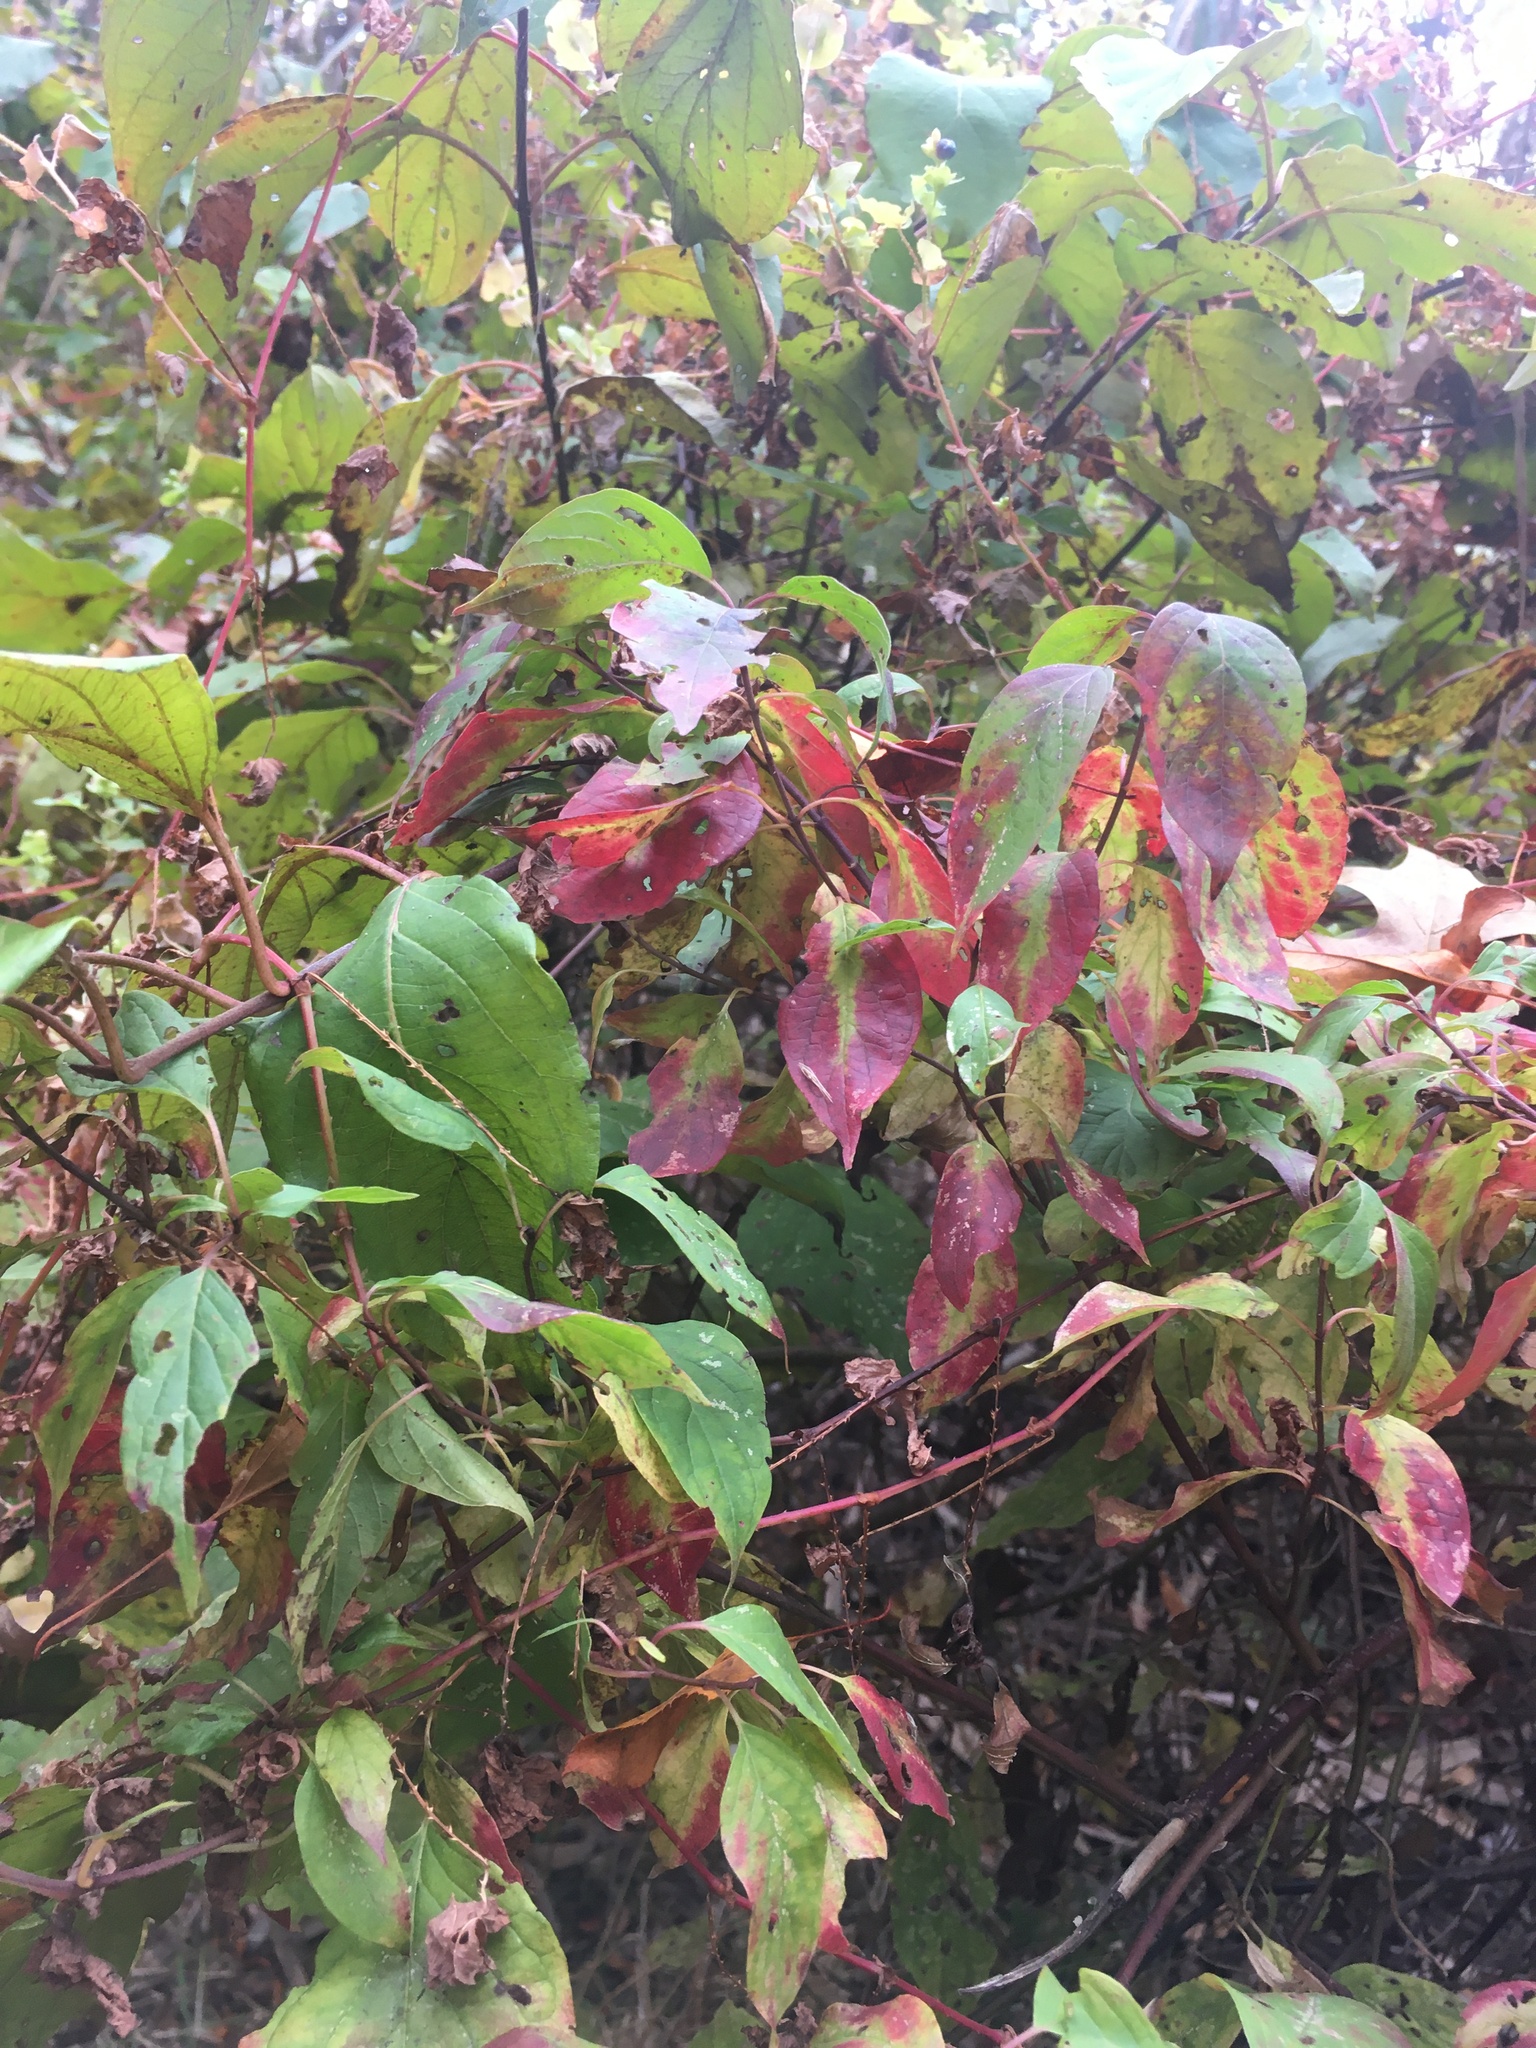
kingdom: Plantae
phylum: Tracheophyta
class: Magnoliopsida
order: Caryophyllales
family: Polygonaceae
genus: Persicaria
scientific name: Persicaria perfoliata
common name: Asiatic tearthumb
